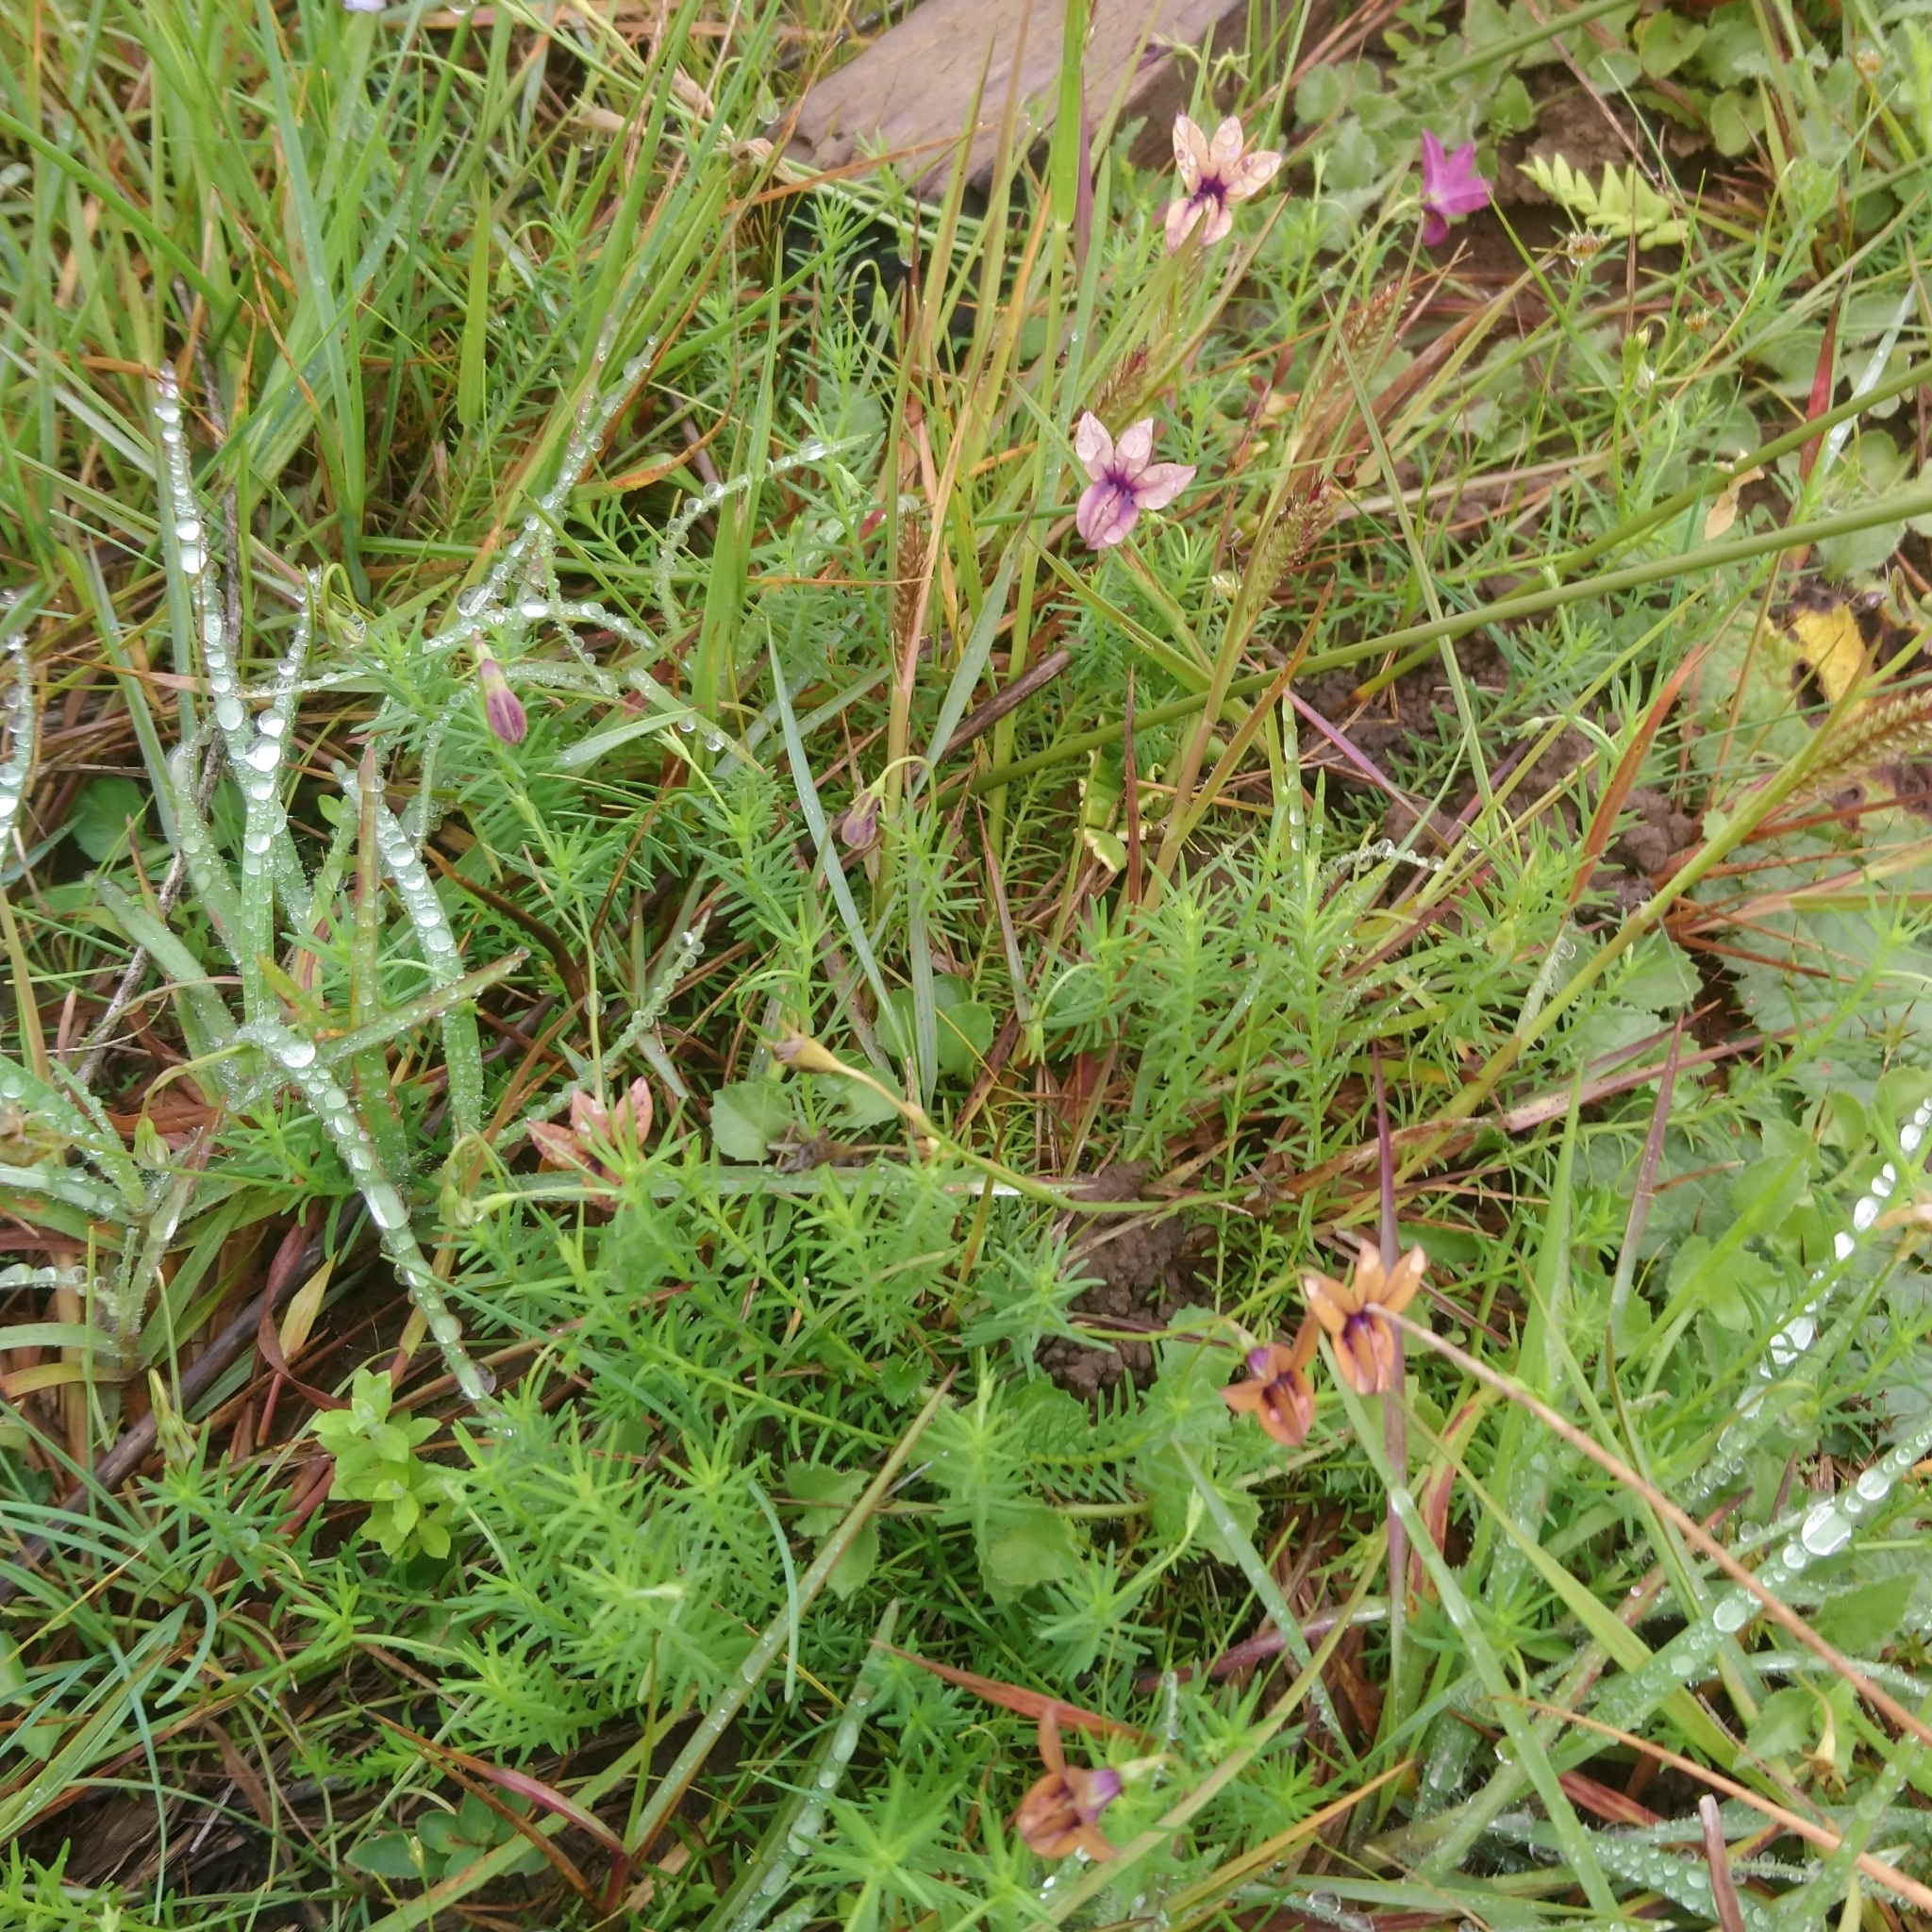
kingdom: Plantae
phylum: Tracheophyta
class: Magnoliopsida
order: Asterales
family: Campanulaceae
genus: Monopsis
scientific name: Monopsis unidentata
